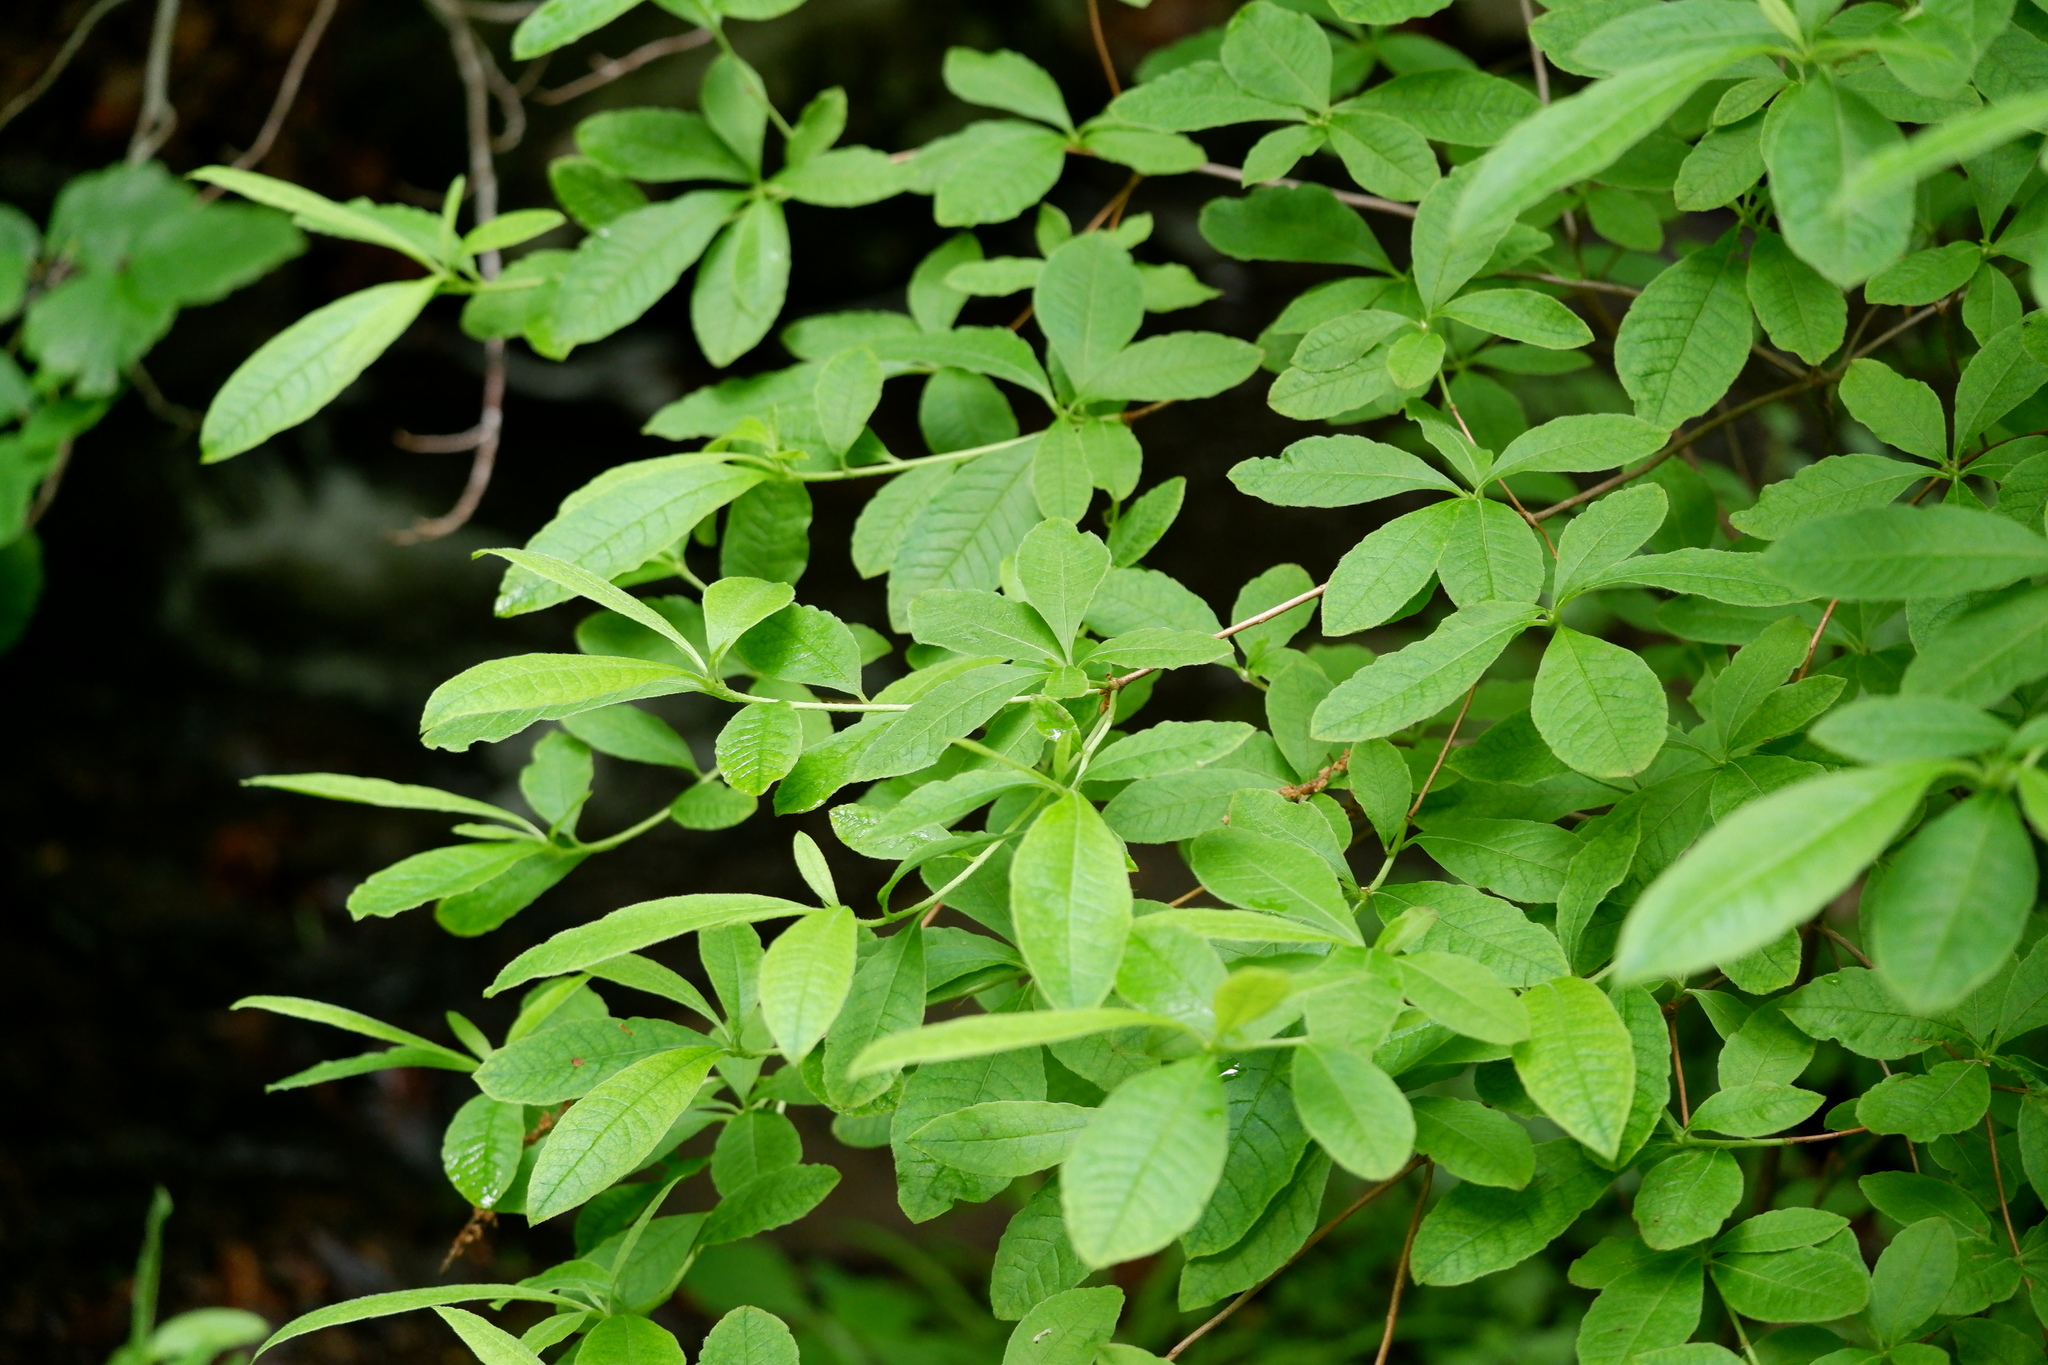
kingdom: Plantae
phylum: Tracheophyta
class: Magnoliopsida
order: Ericales
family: Ericaceae
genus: Rhododendron
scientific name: Rhododendron viscosum
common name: Clammy azalea
